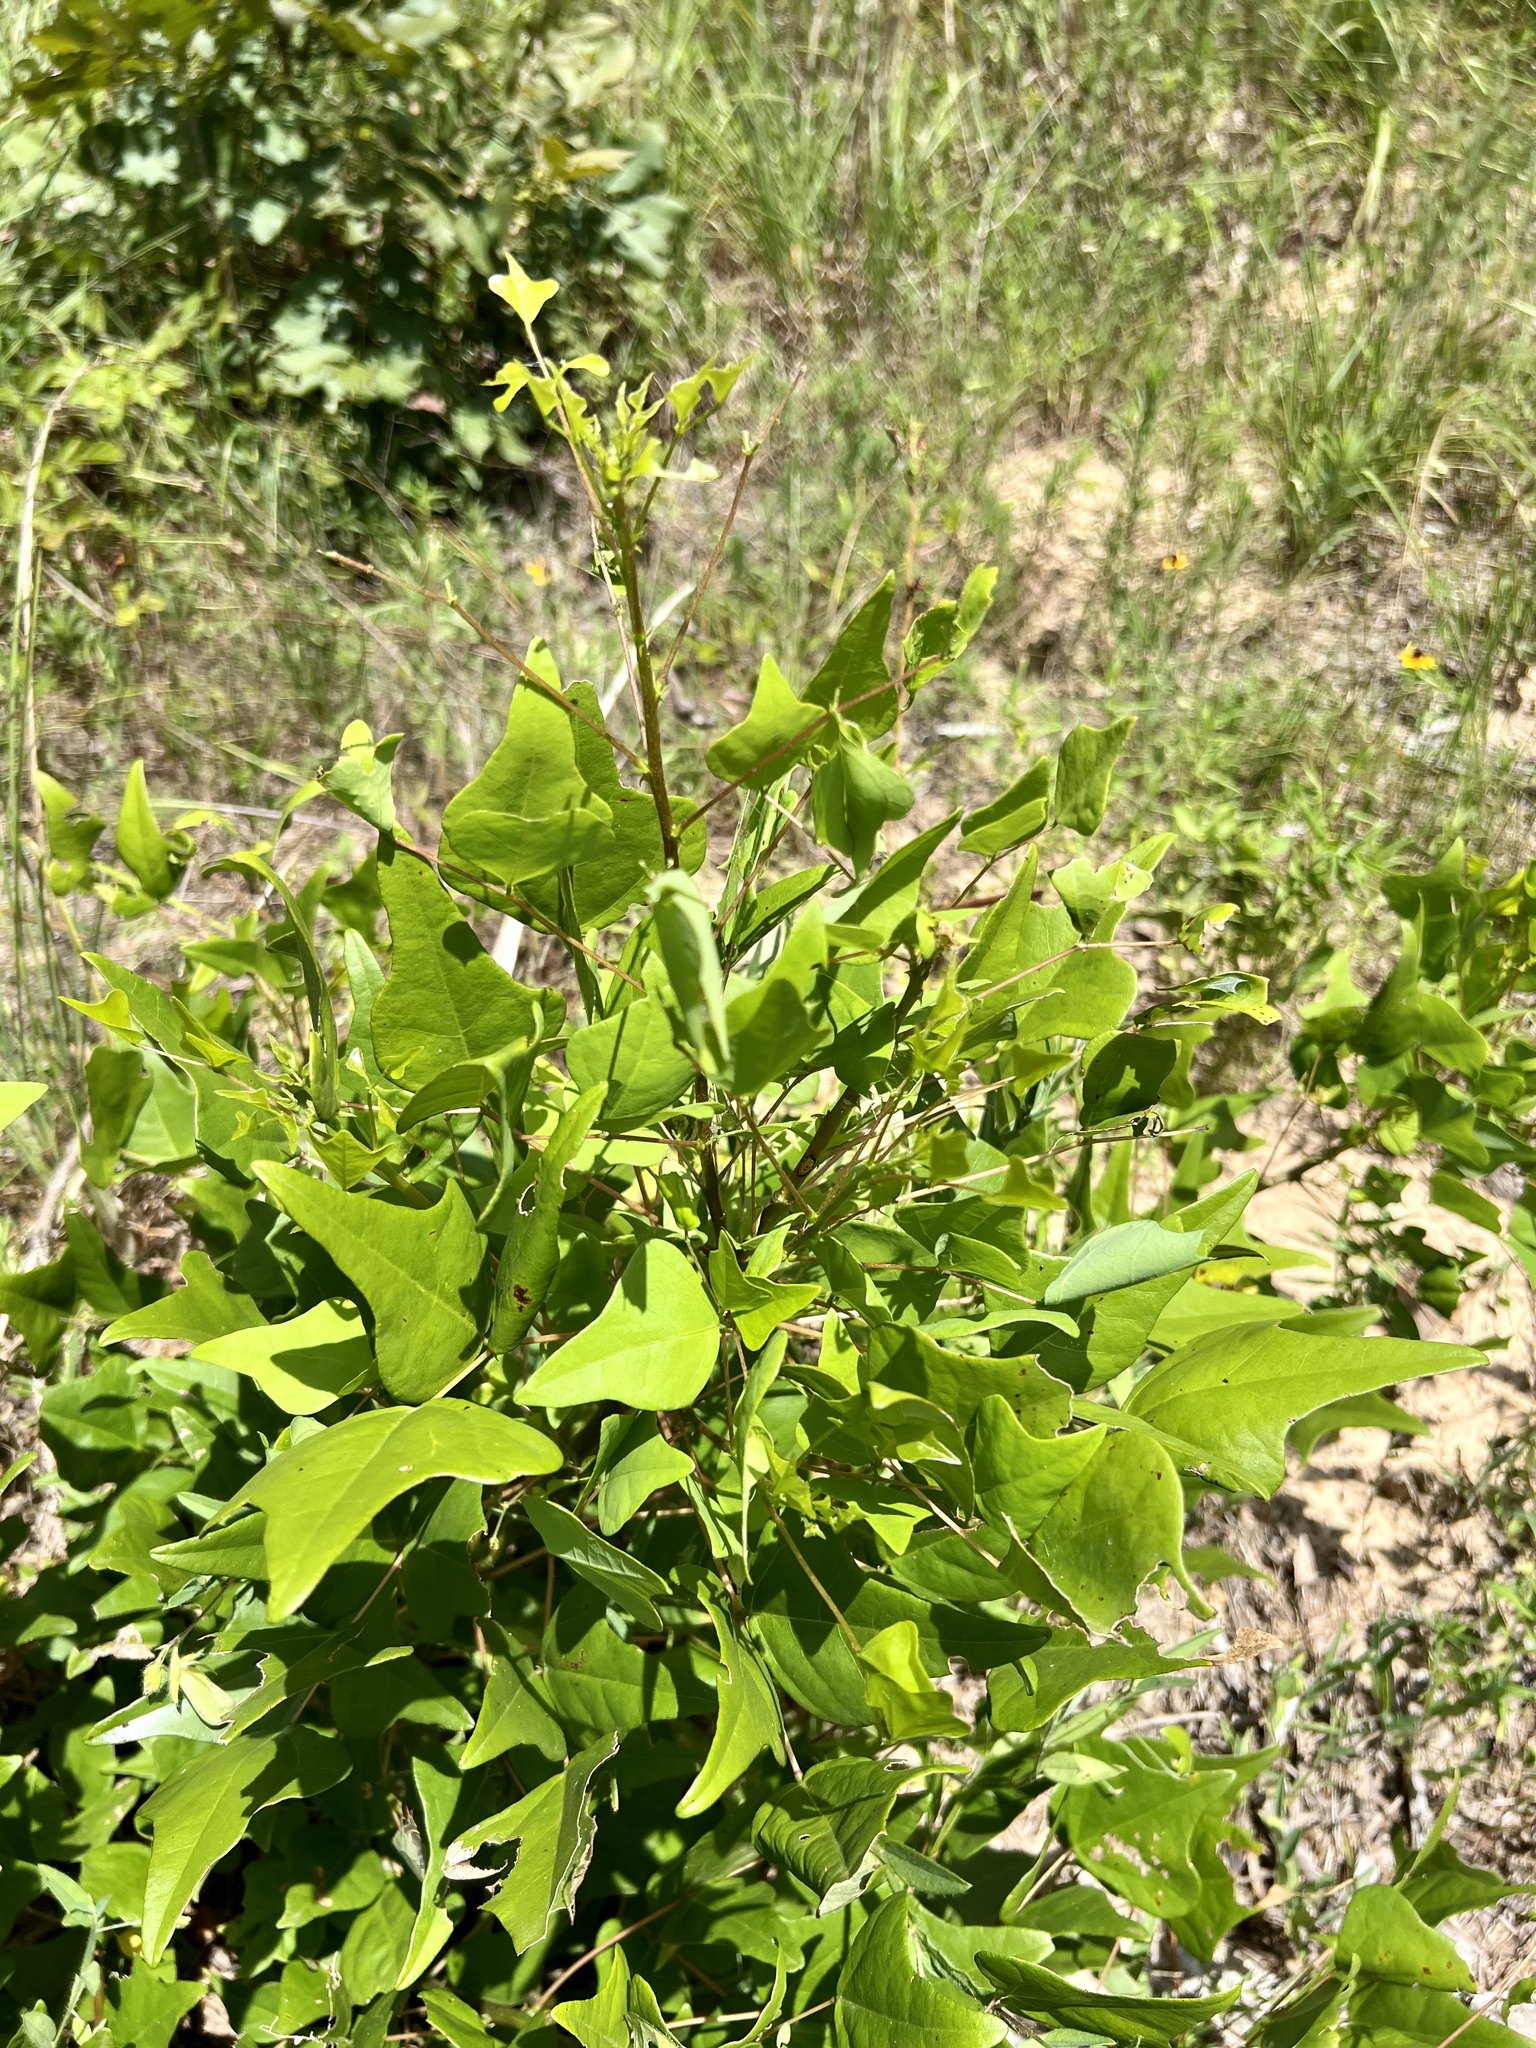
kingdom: Plantae
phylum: Tracheophyta
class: Magnoliopsida
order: Fabales
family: Fabaceae
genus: Erythrina
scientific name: Erythrina herbacea
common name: Coral-bean
